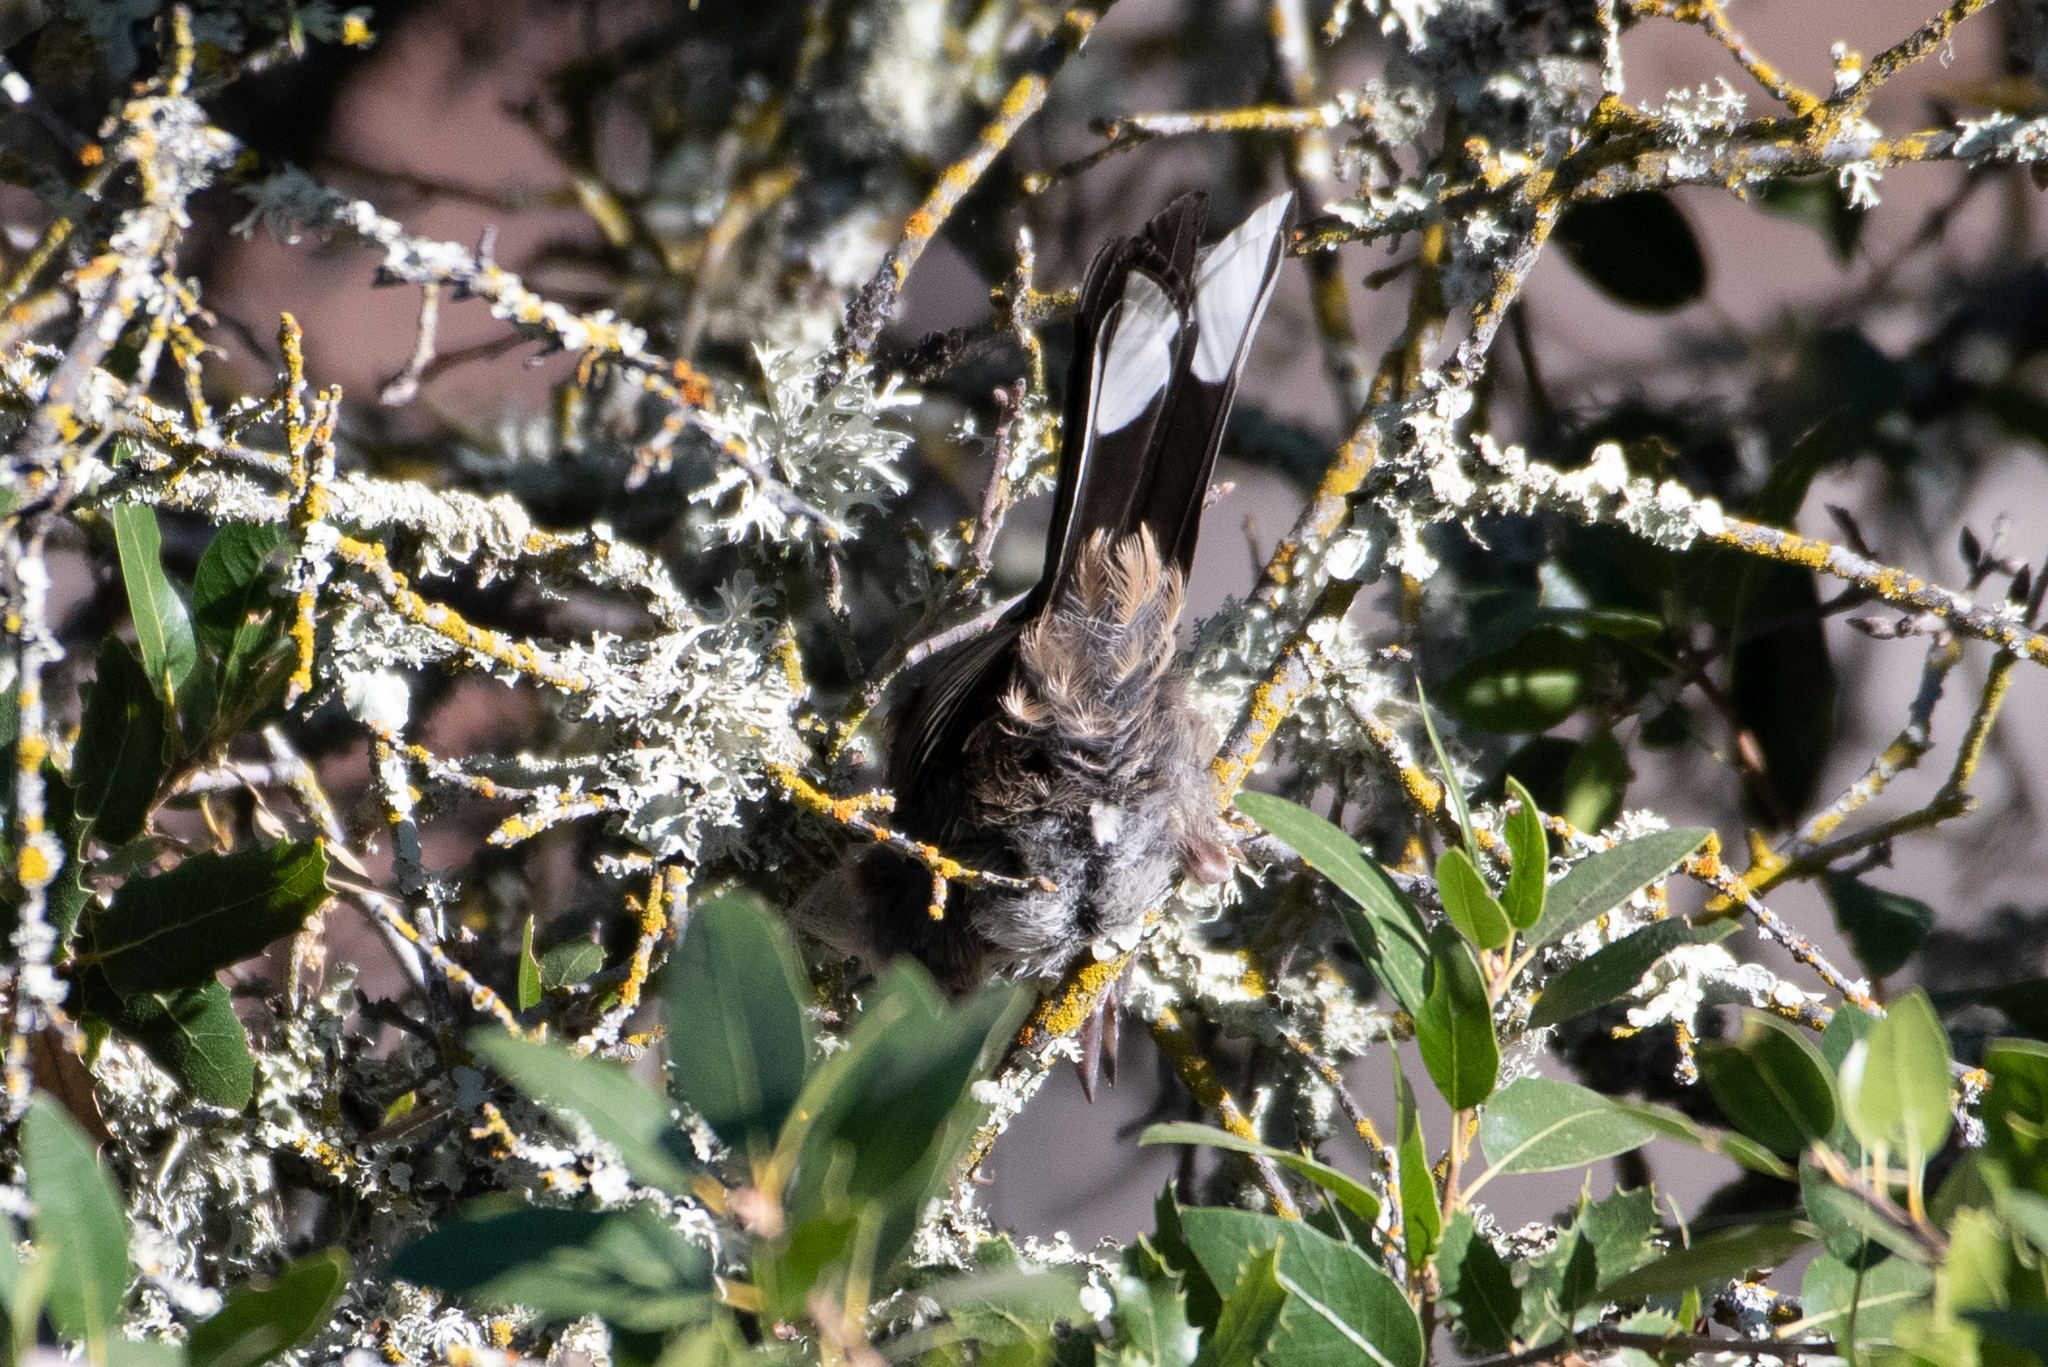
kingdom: Animalia
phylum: Chordata
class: Aves
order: Passeriformes
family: Passerellidae
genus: Pipilo
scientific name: Pipilo maculatus
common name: Spotted towhee
